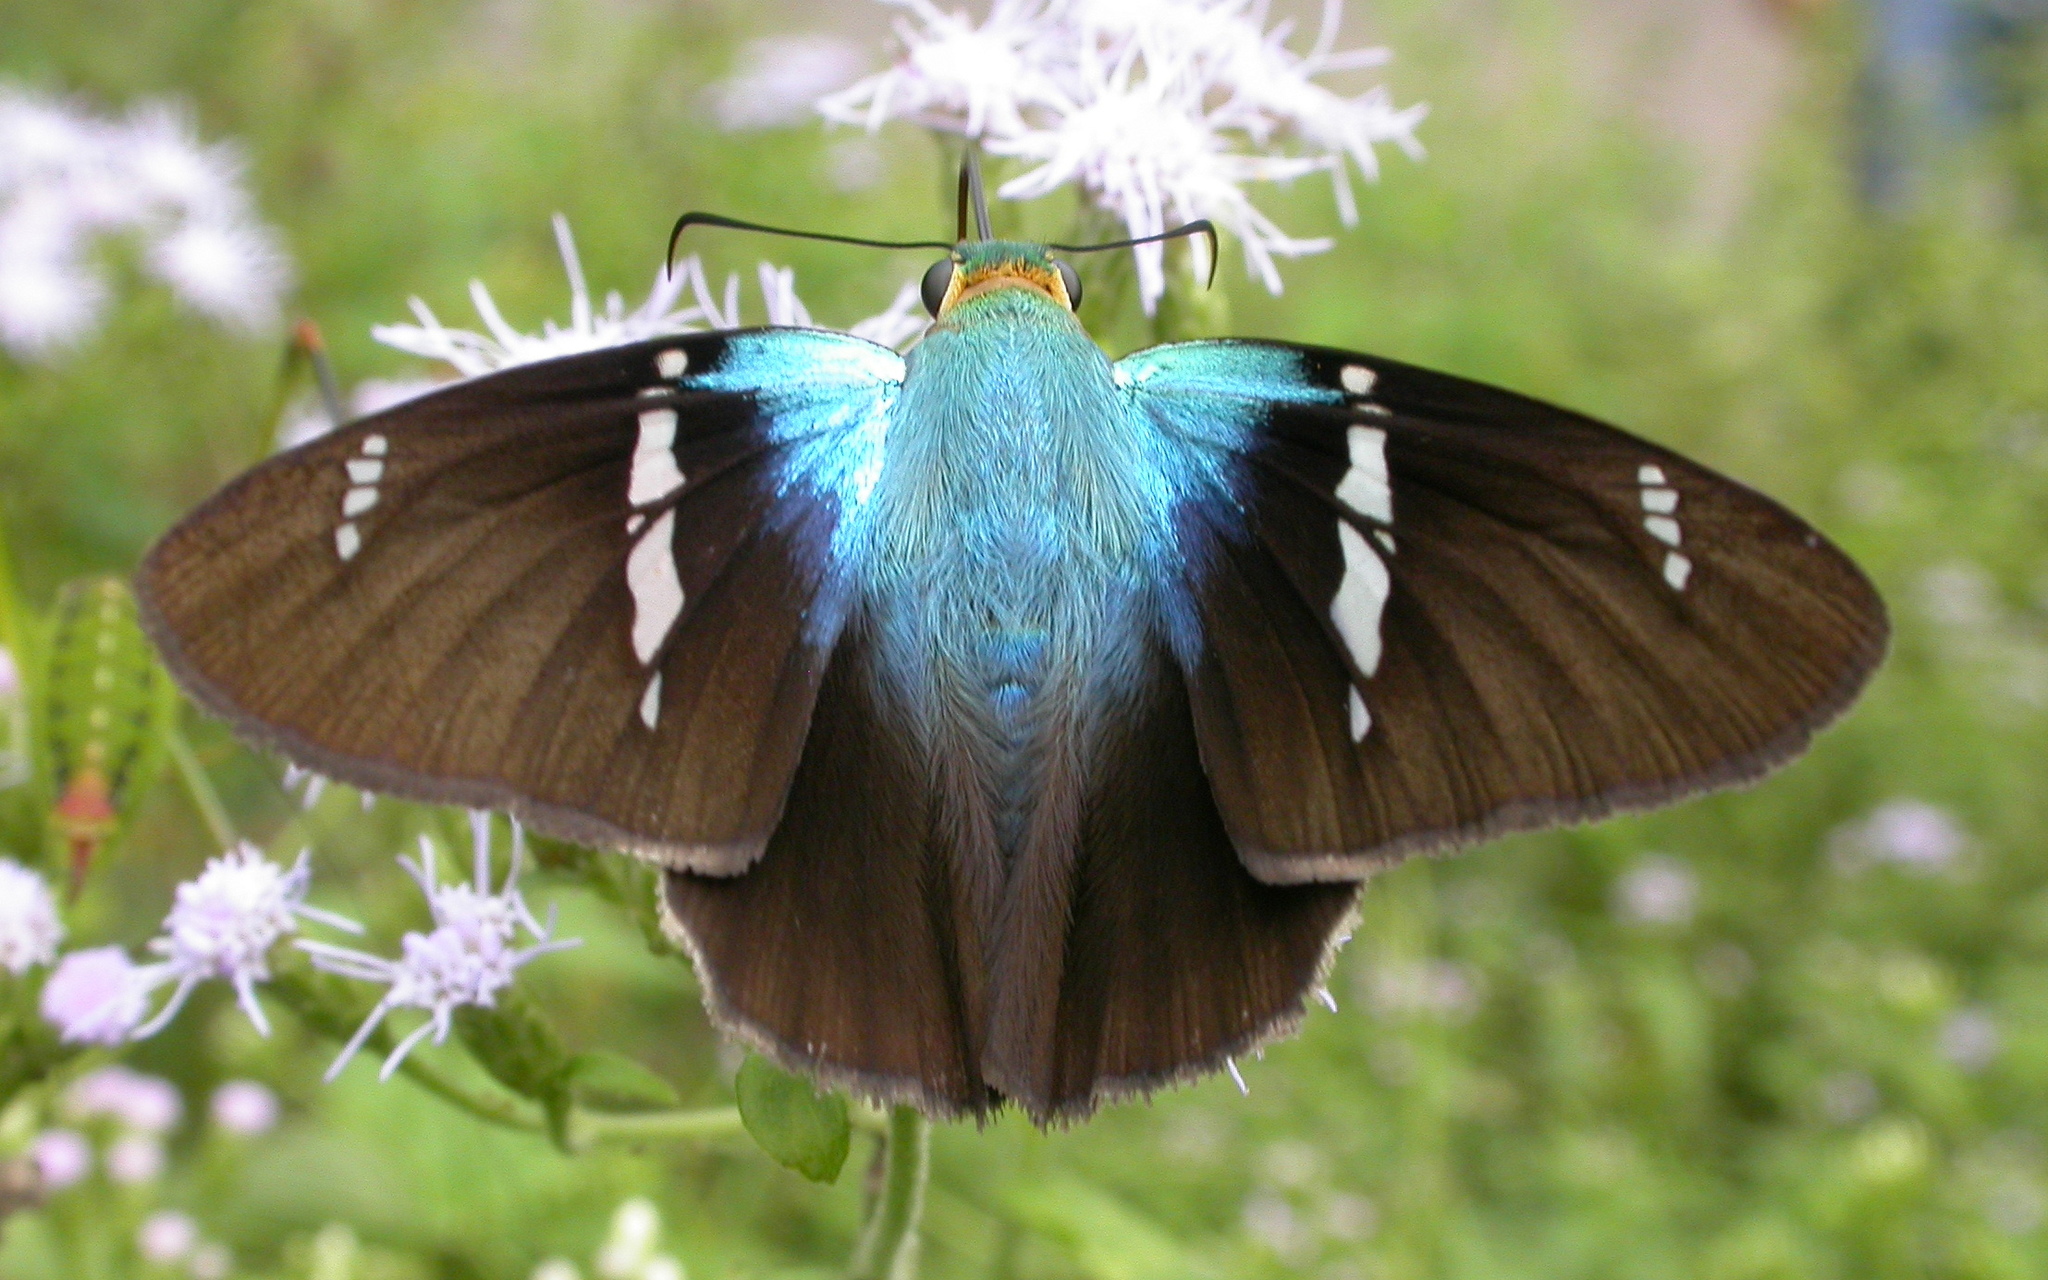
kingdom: Animalia
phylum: Arthropoda
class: Insecta
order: Lepidoptera
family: Hesperiidae
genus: Astraptes
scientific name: Astraptes fulgerator
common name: Two-barred flasher
